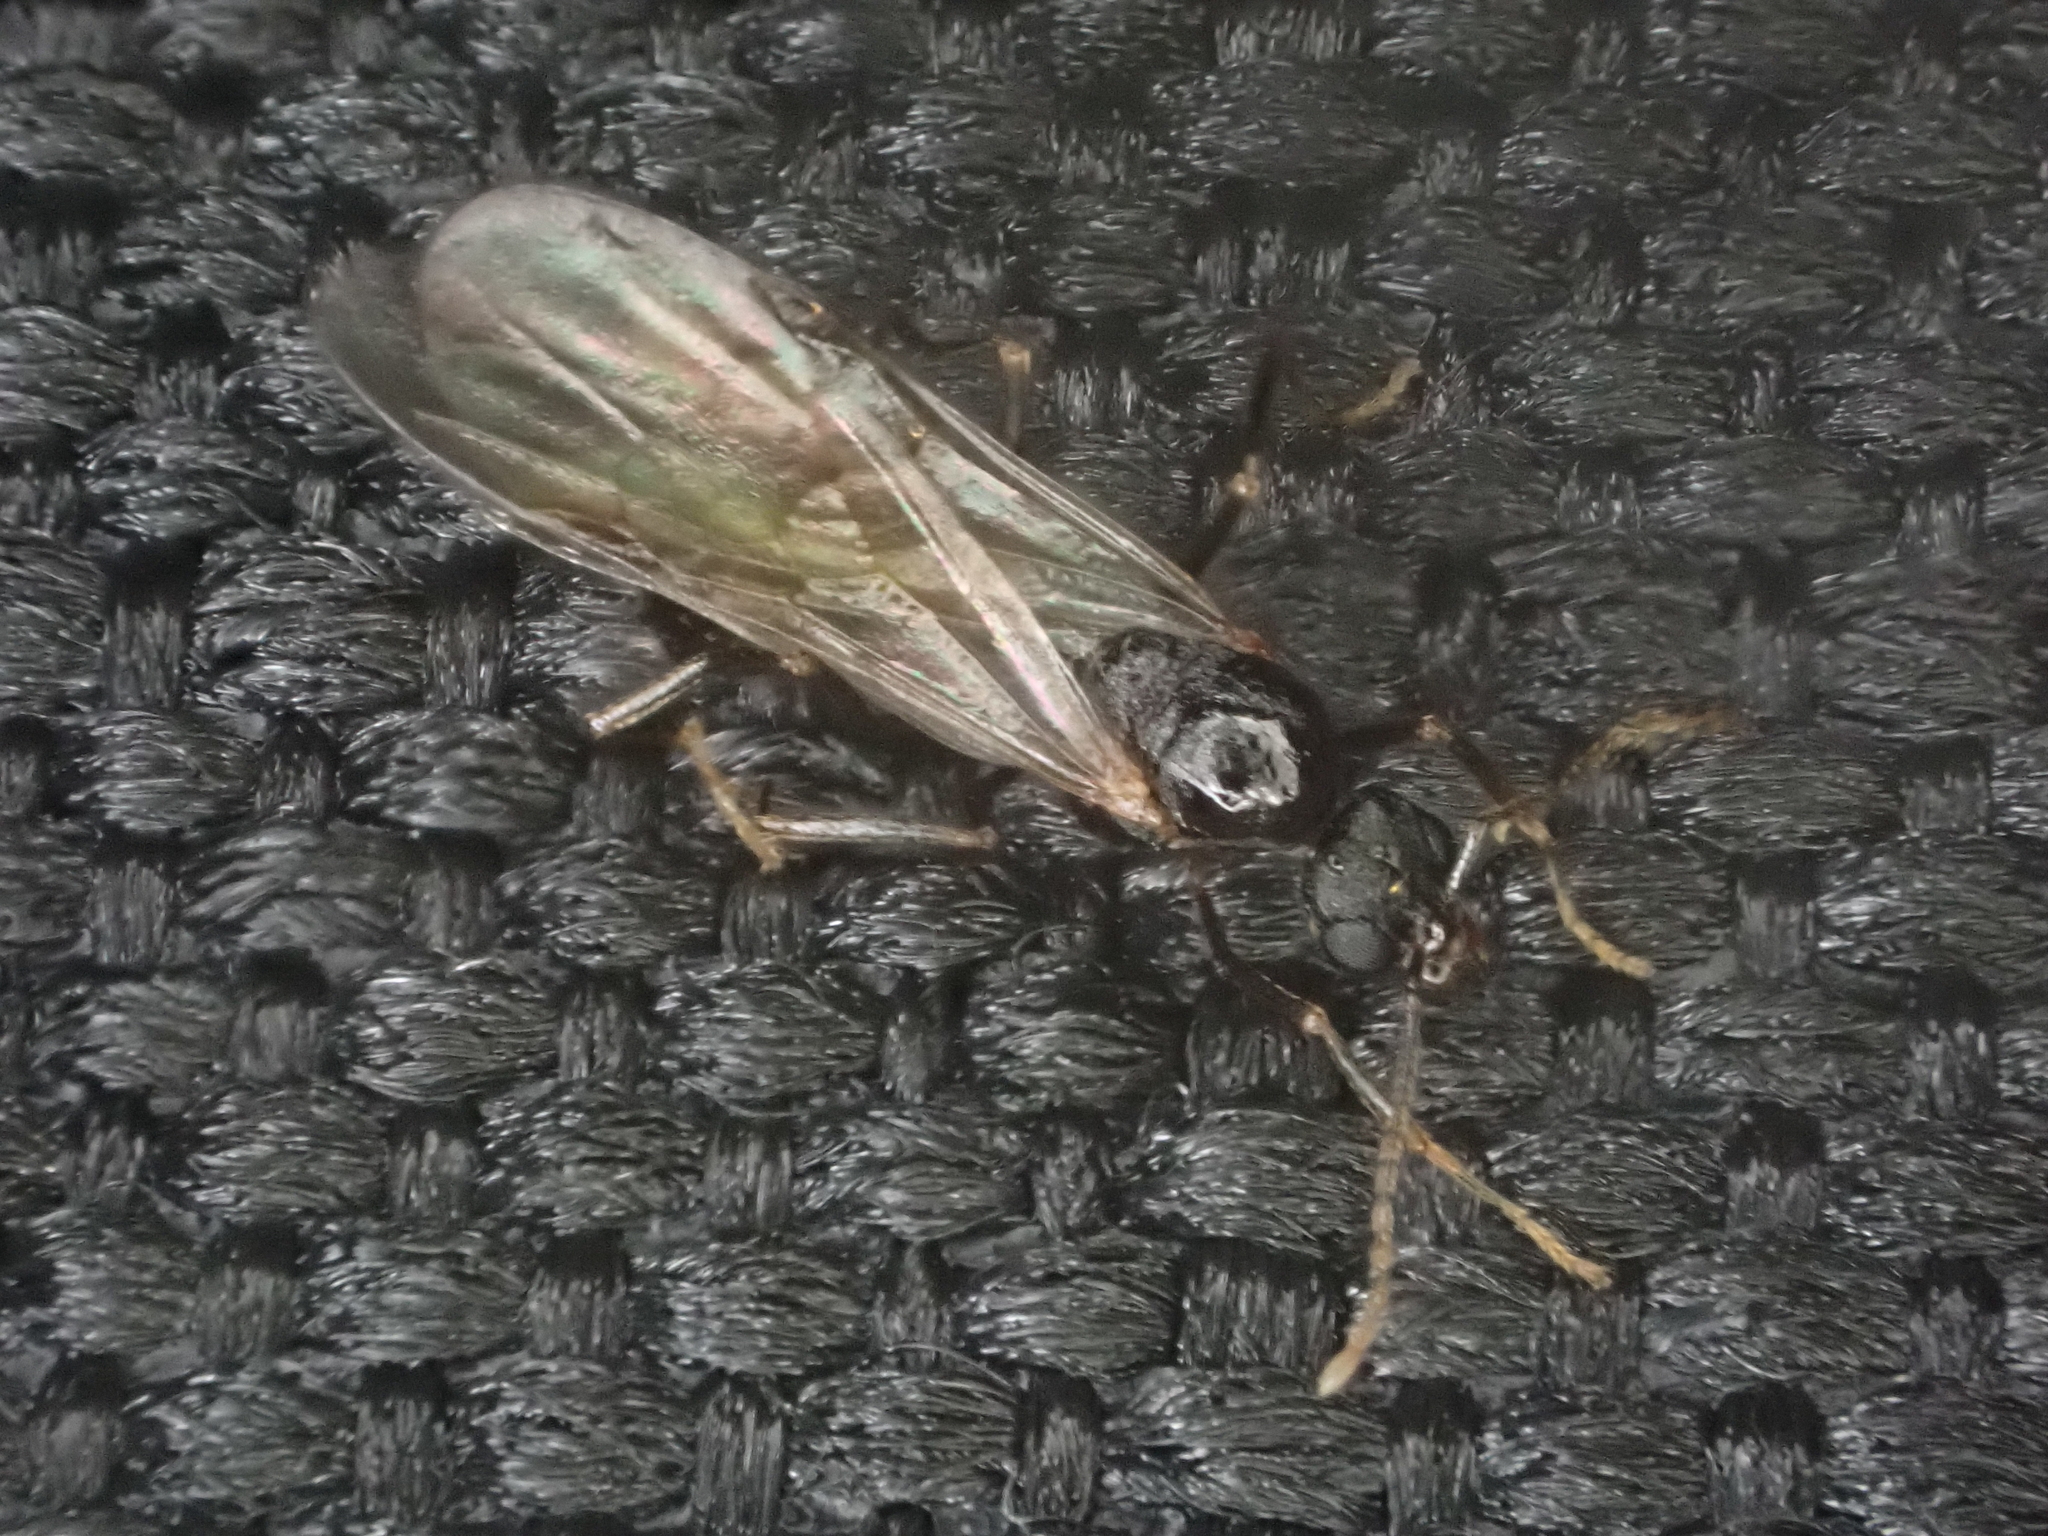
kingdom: Animalia
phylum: Arthropoda
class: Insecta
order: Hymenoptera
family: Formicidae
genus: Monomorium
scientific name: Monomorium minimum
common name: Little black ant
